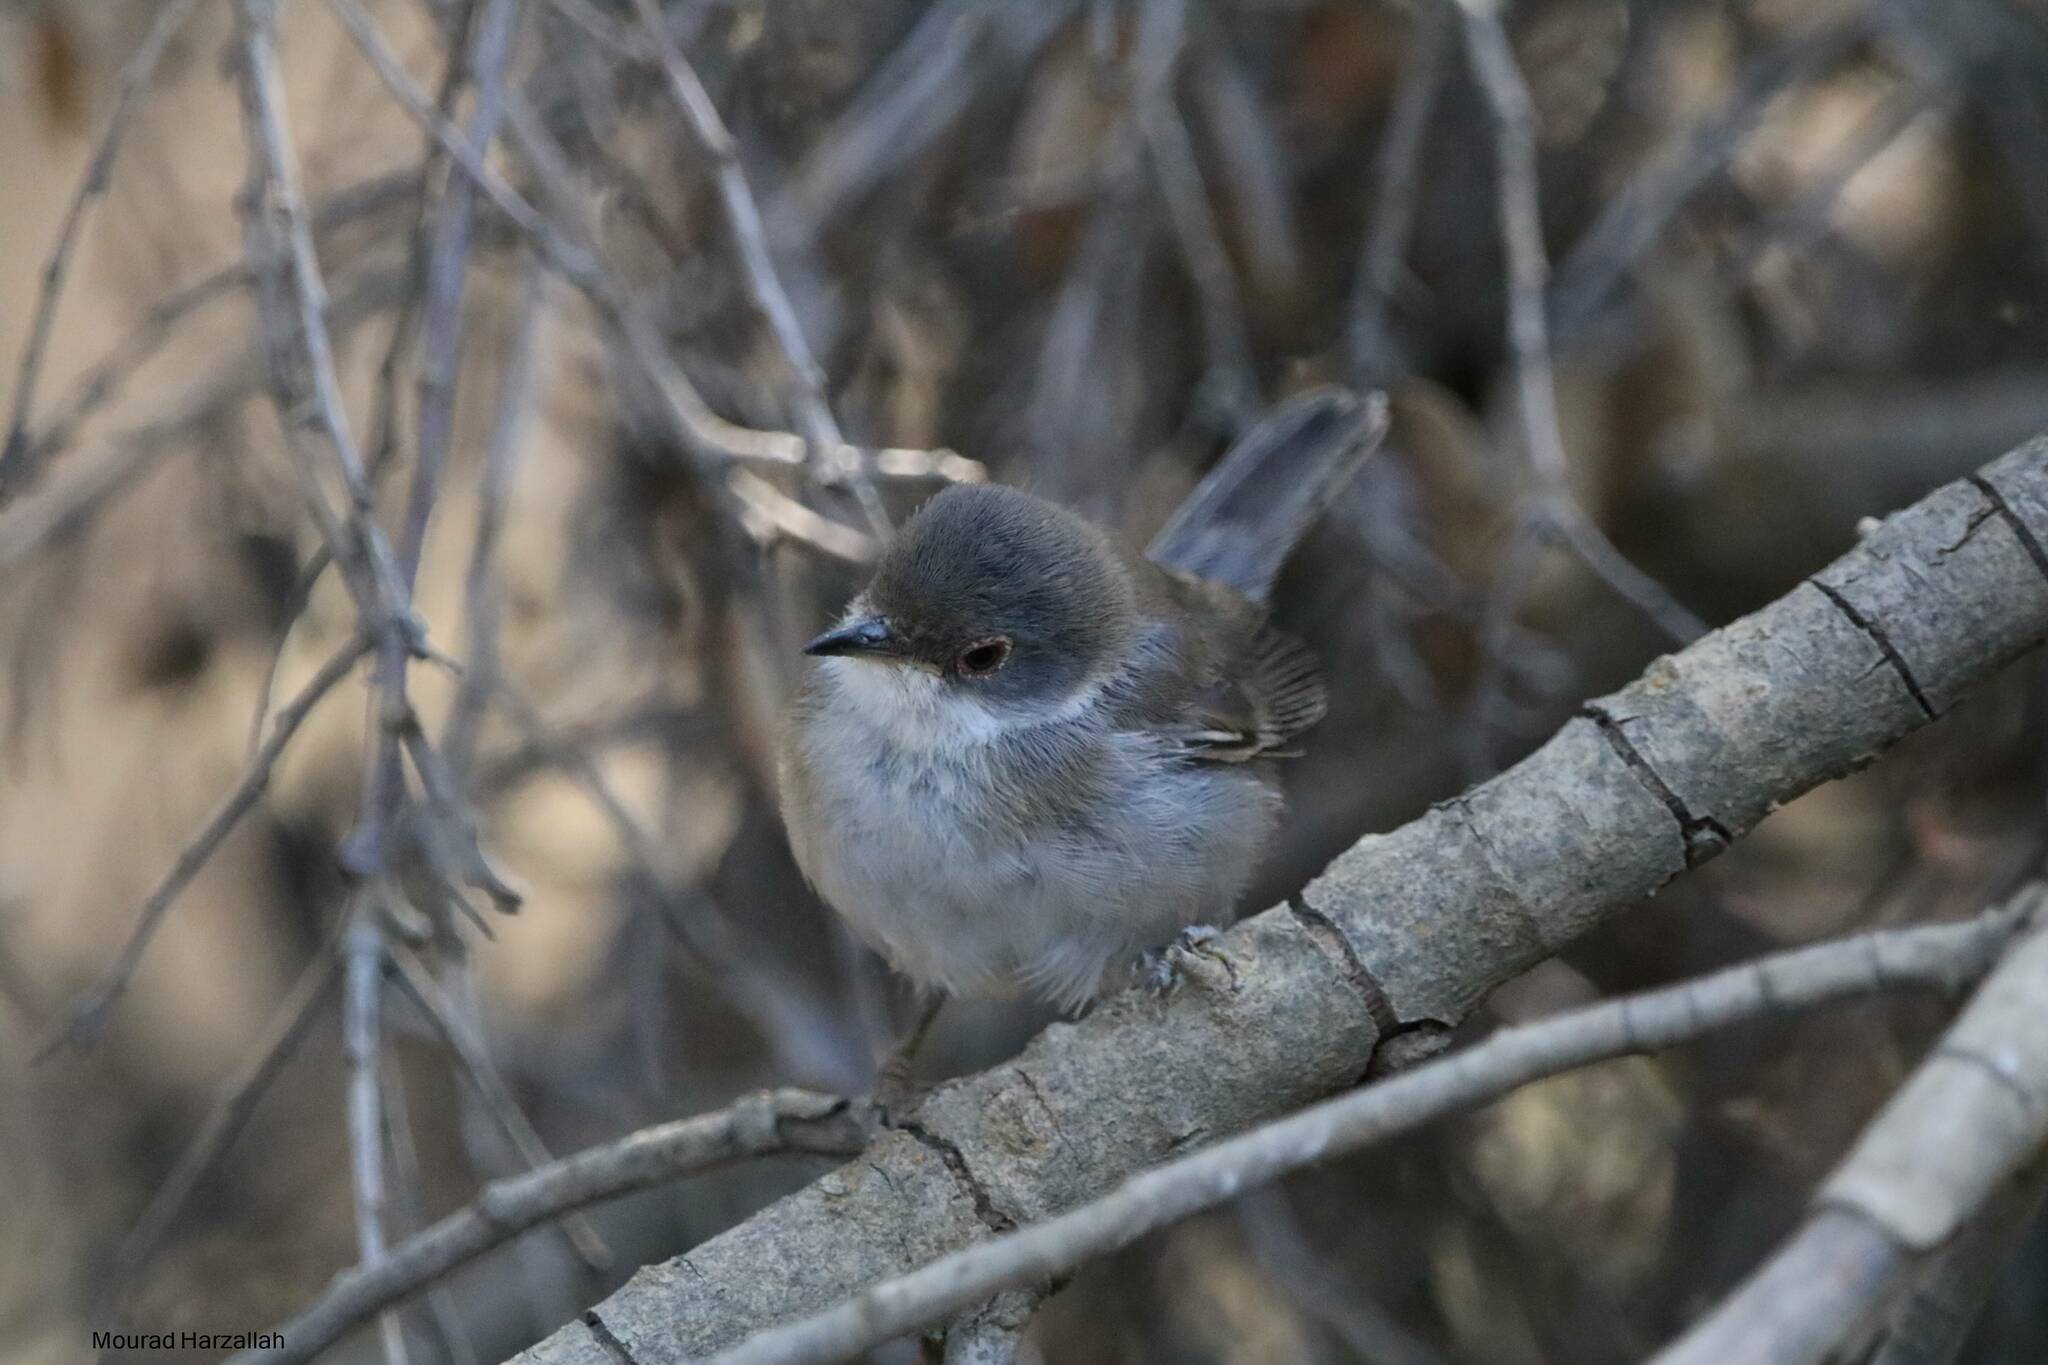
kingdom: Animalia
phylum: Chordata
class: Aves
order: Passeriformes
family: Sylviidae
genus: Curruca
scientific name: Curruca melanocephala
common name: Sardinian warbler
